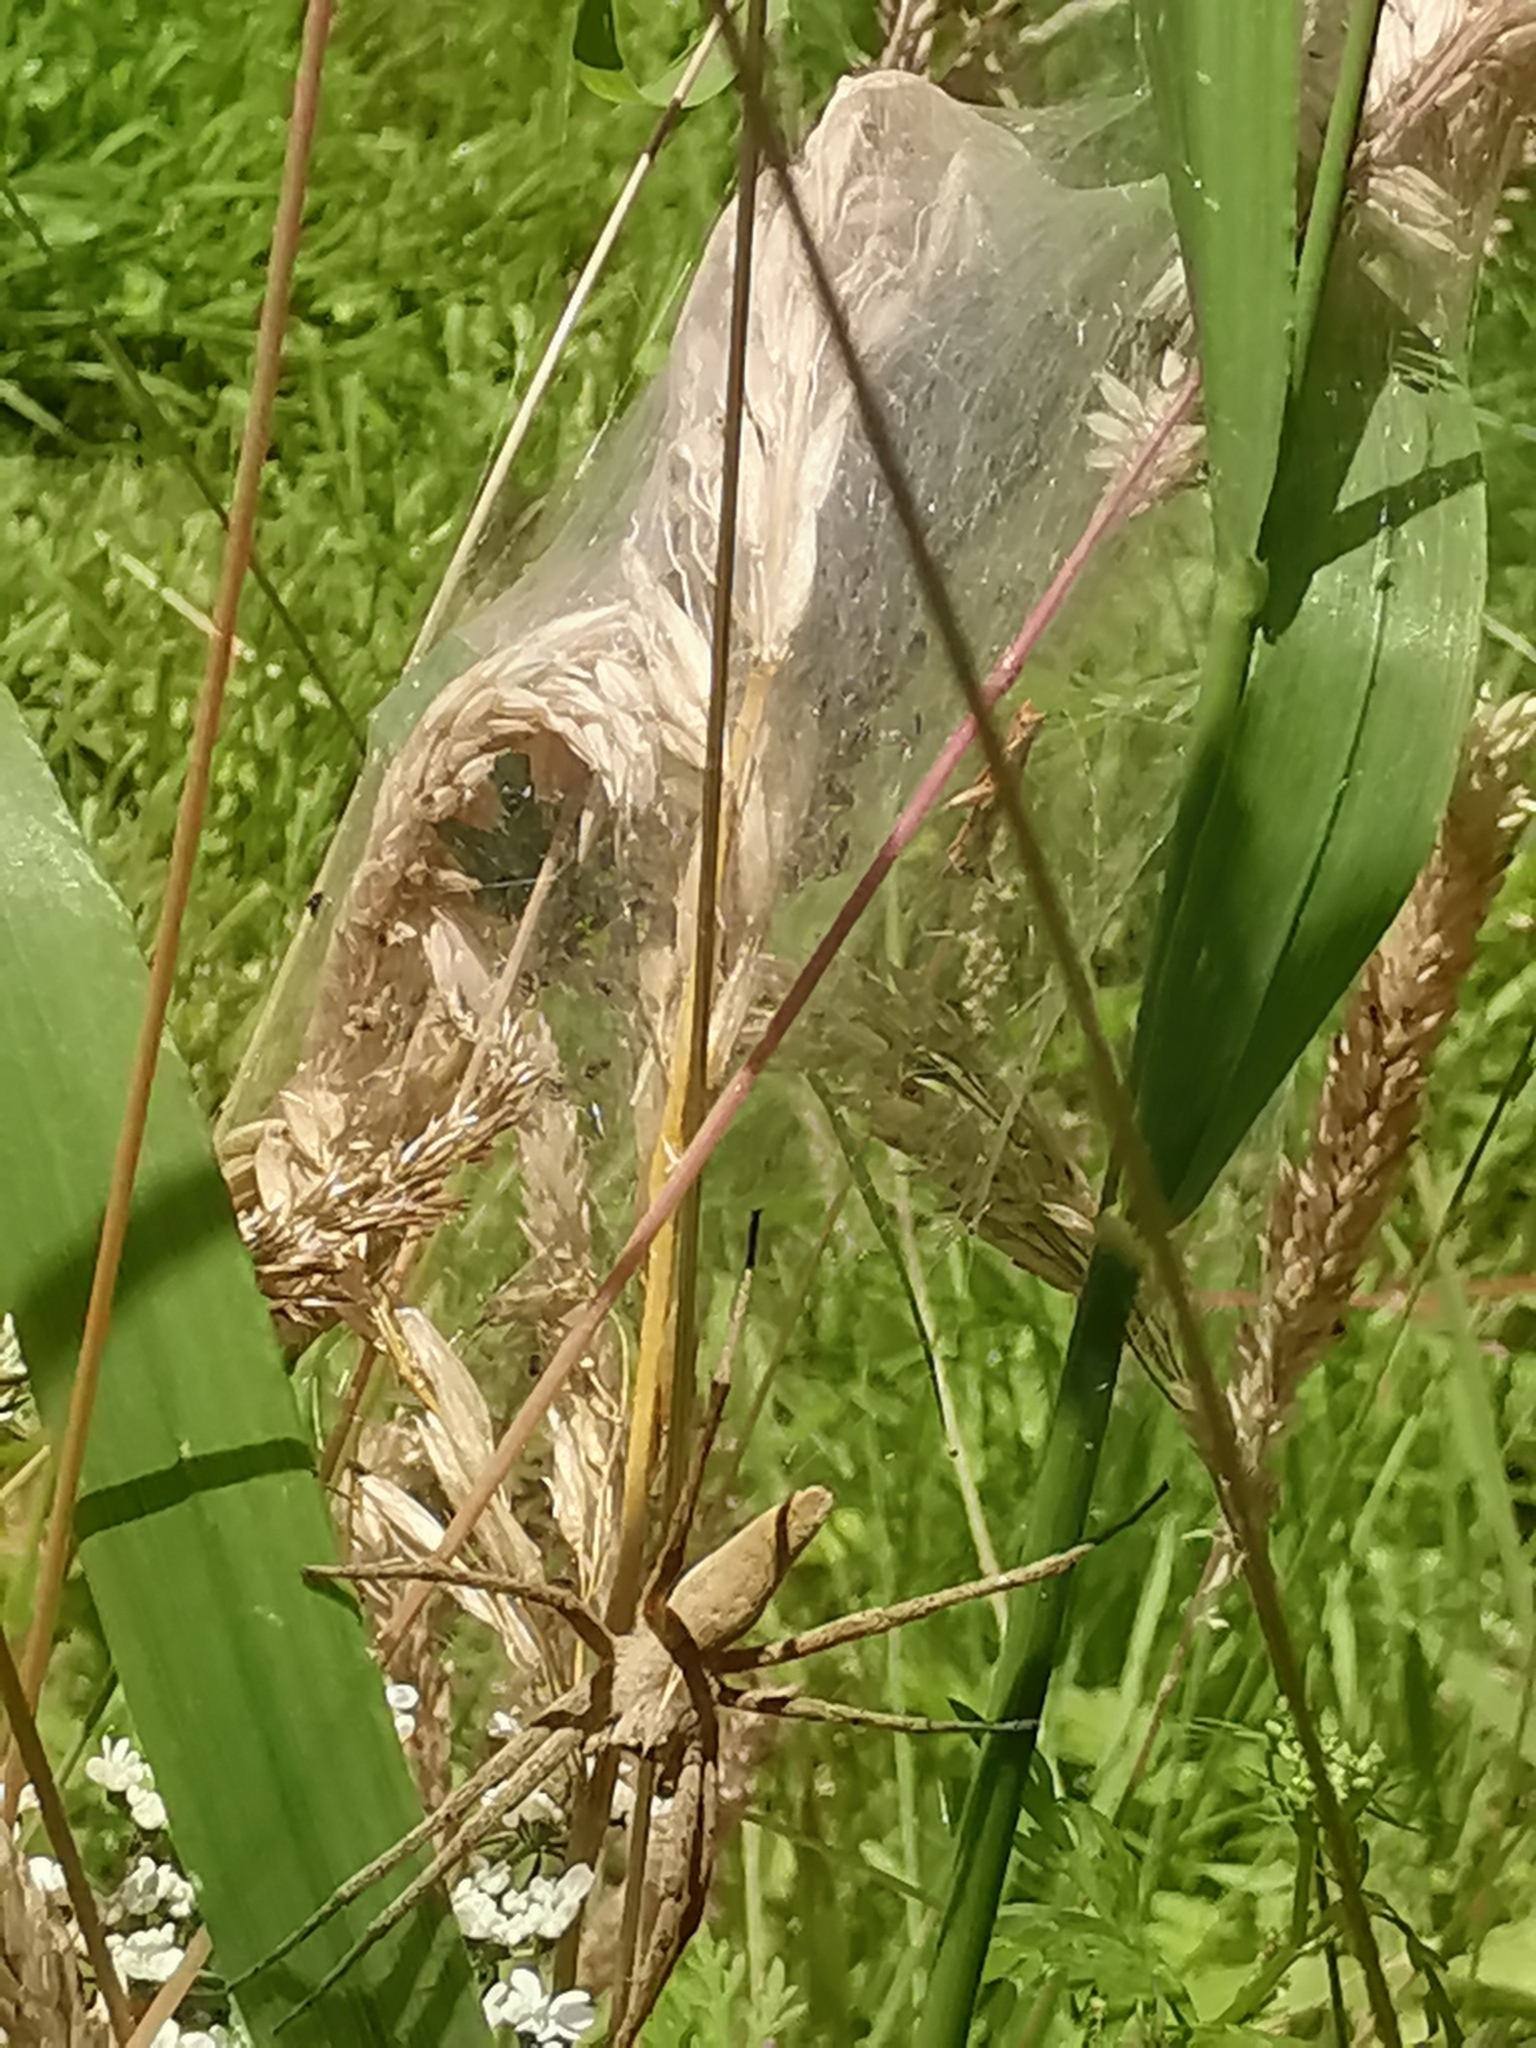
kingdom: Animalia
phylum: Arthropoda
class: Arachnida
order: Araneae
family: Pisauridae
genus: Pisaura
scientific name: Pisaura mirabilis
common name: Tent spider
